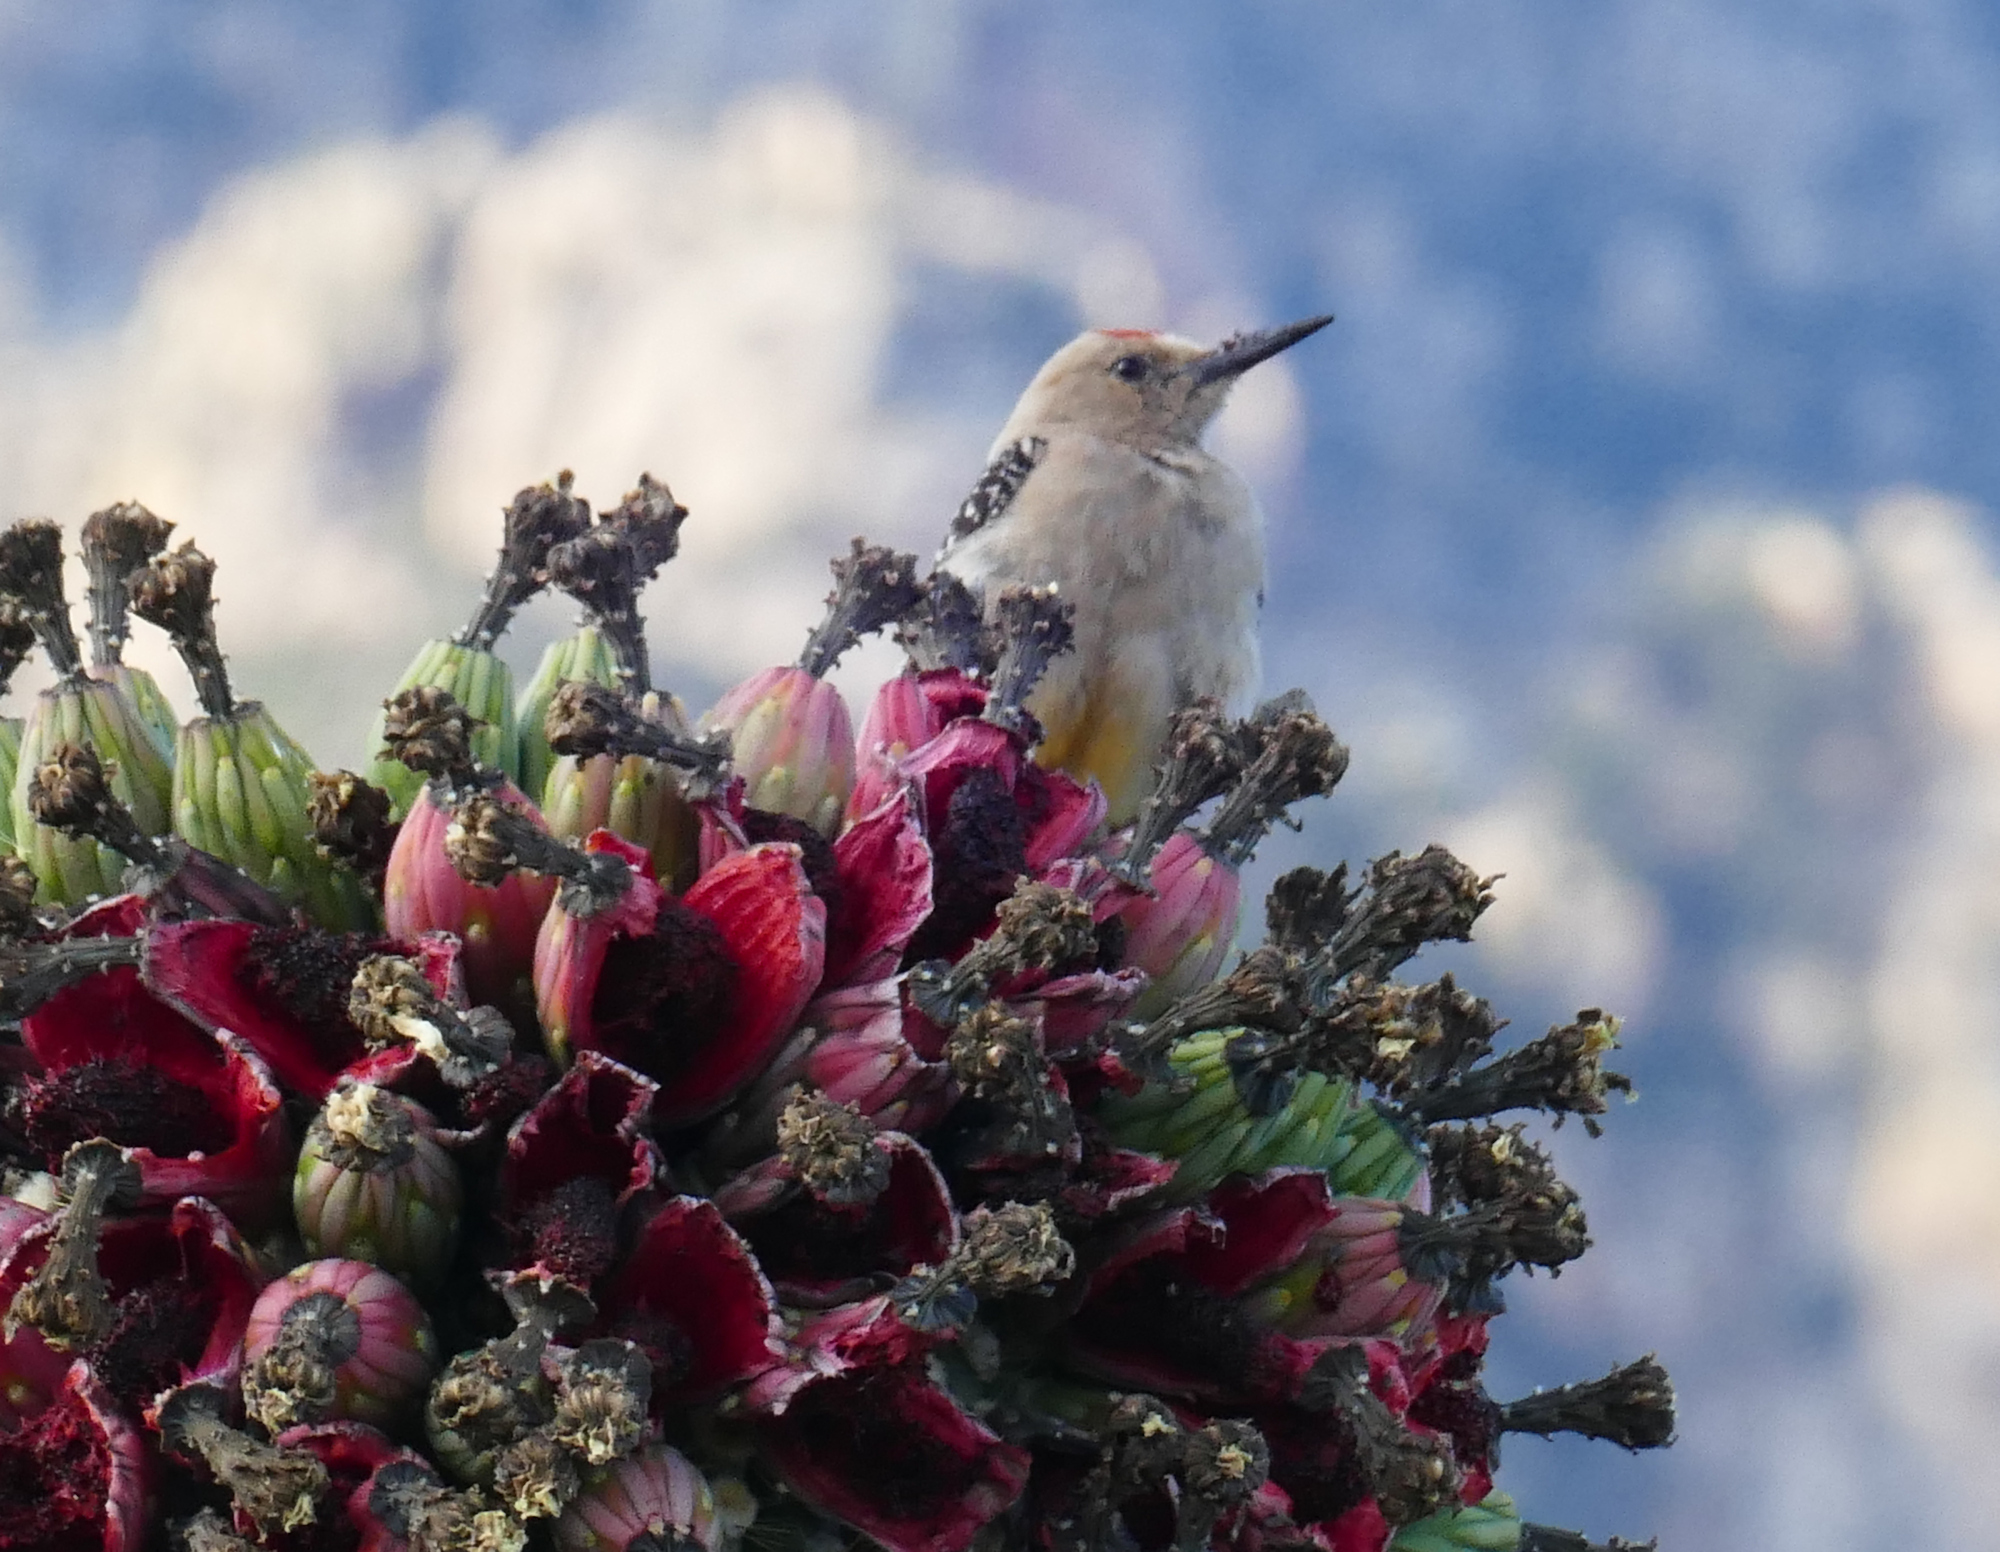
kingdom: Animalia
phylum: Chordata
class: Aves
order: Piciformes
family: Picidae
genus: Melanerpes
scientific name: Melanerpes uropygialis
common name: Gila woodpecker
